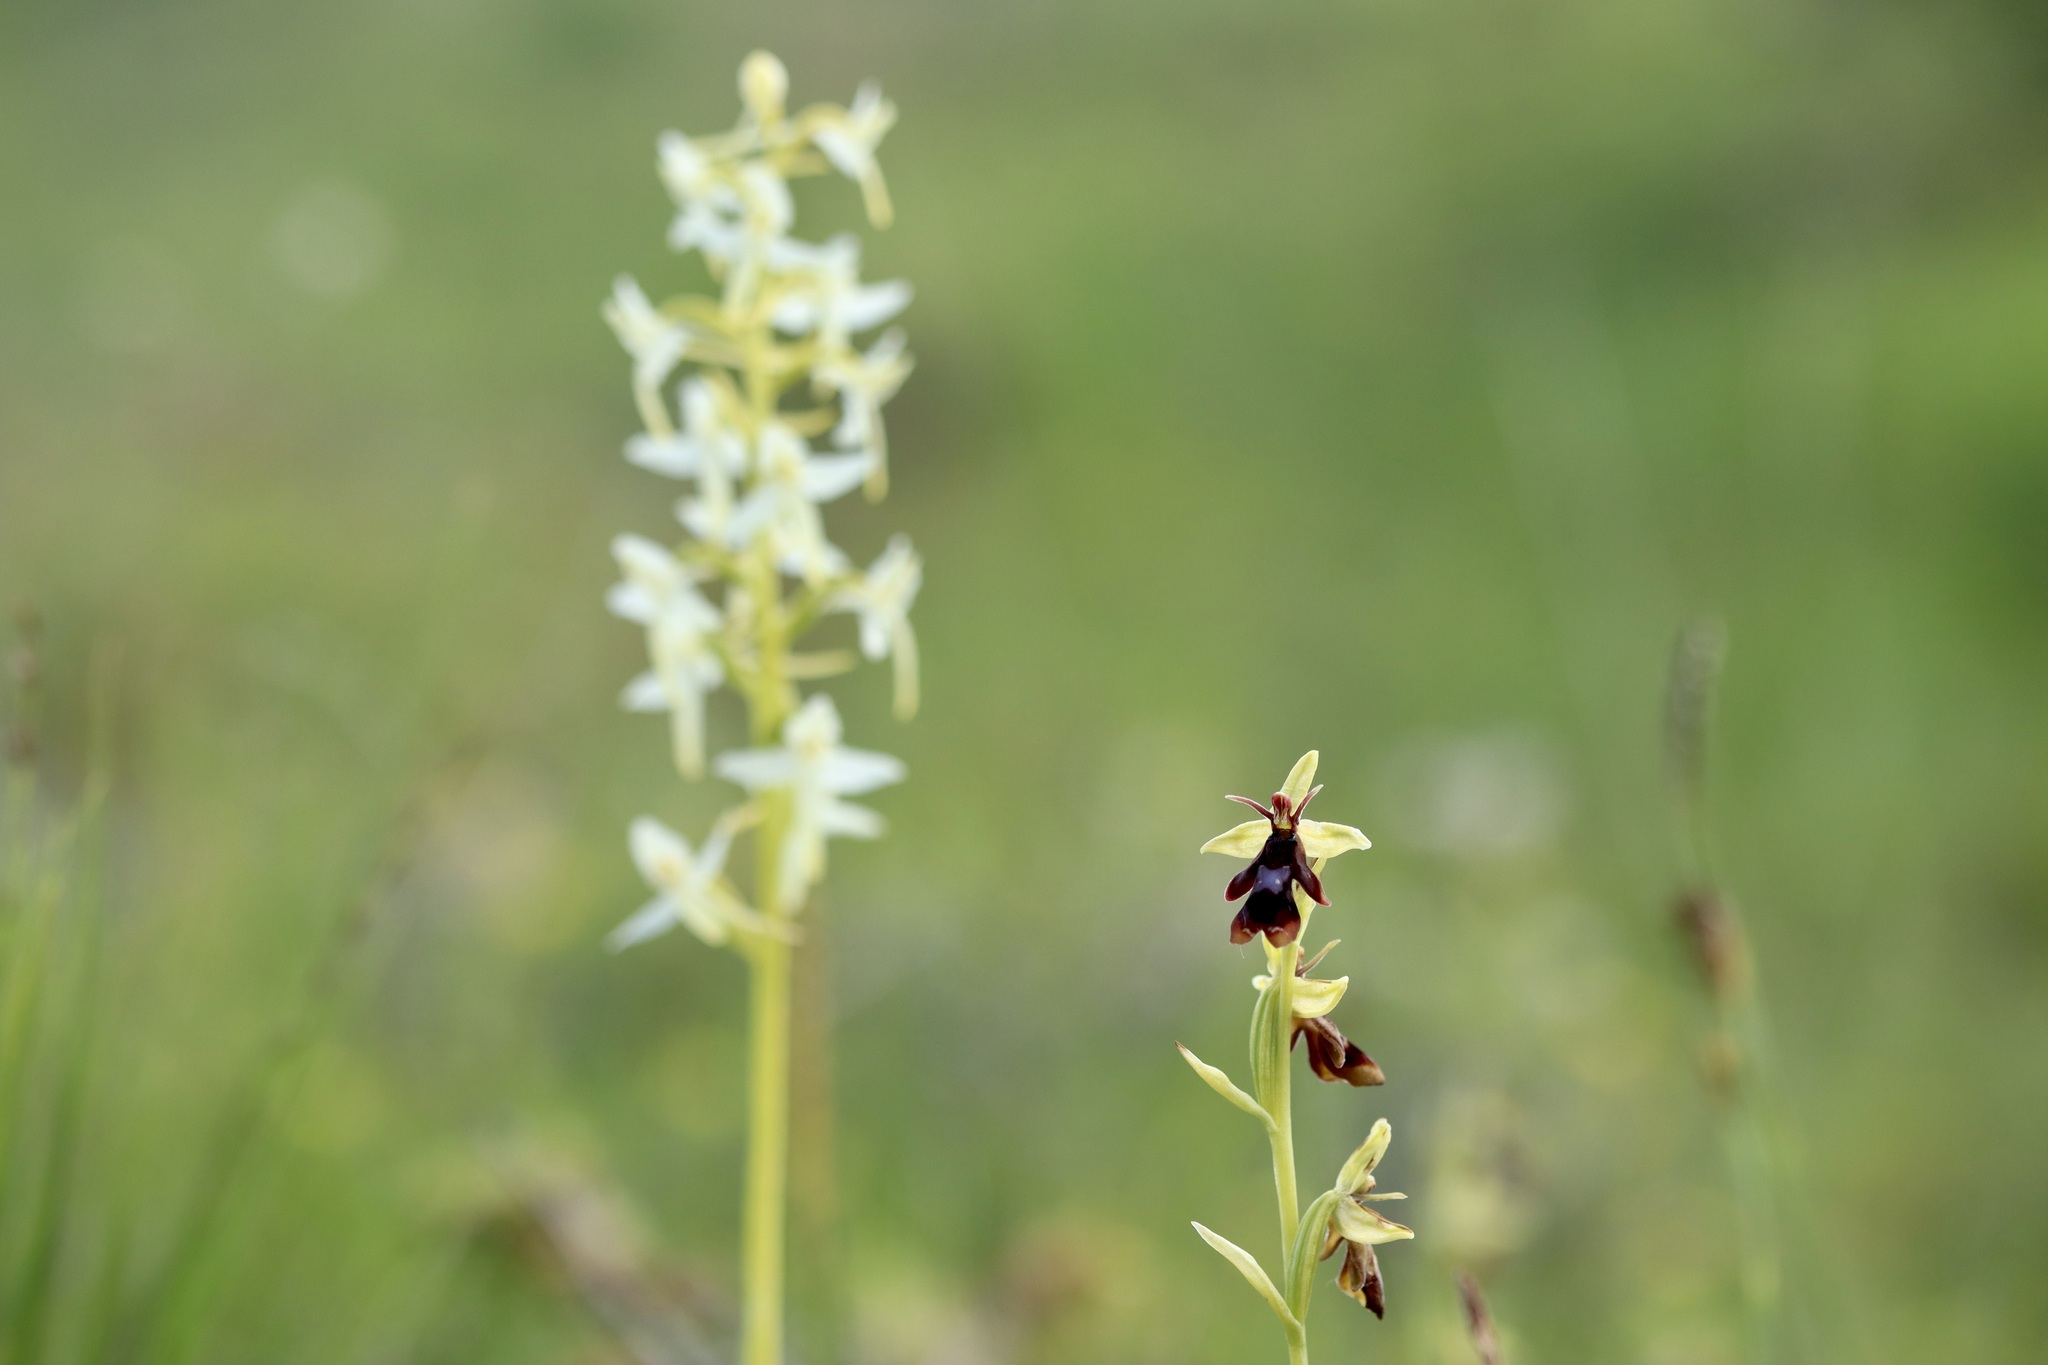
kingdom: Plantae
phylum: Tracheophyta
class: Liliopsida
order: Asparagales
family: Orchidaceae
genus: Ophrys
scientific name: Ophrys insectifera
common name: Fly orchid
